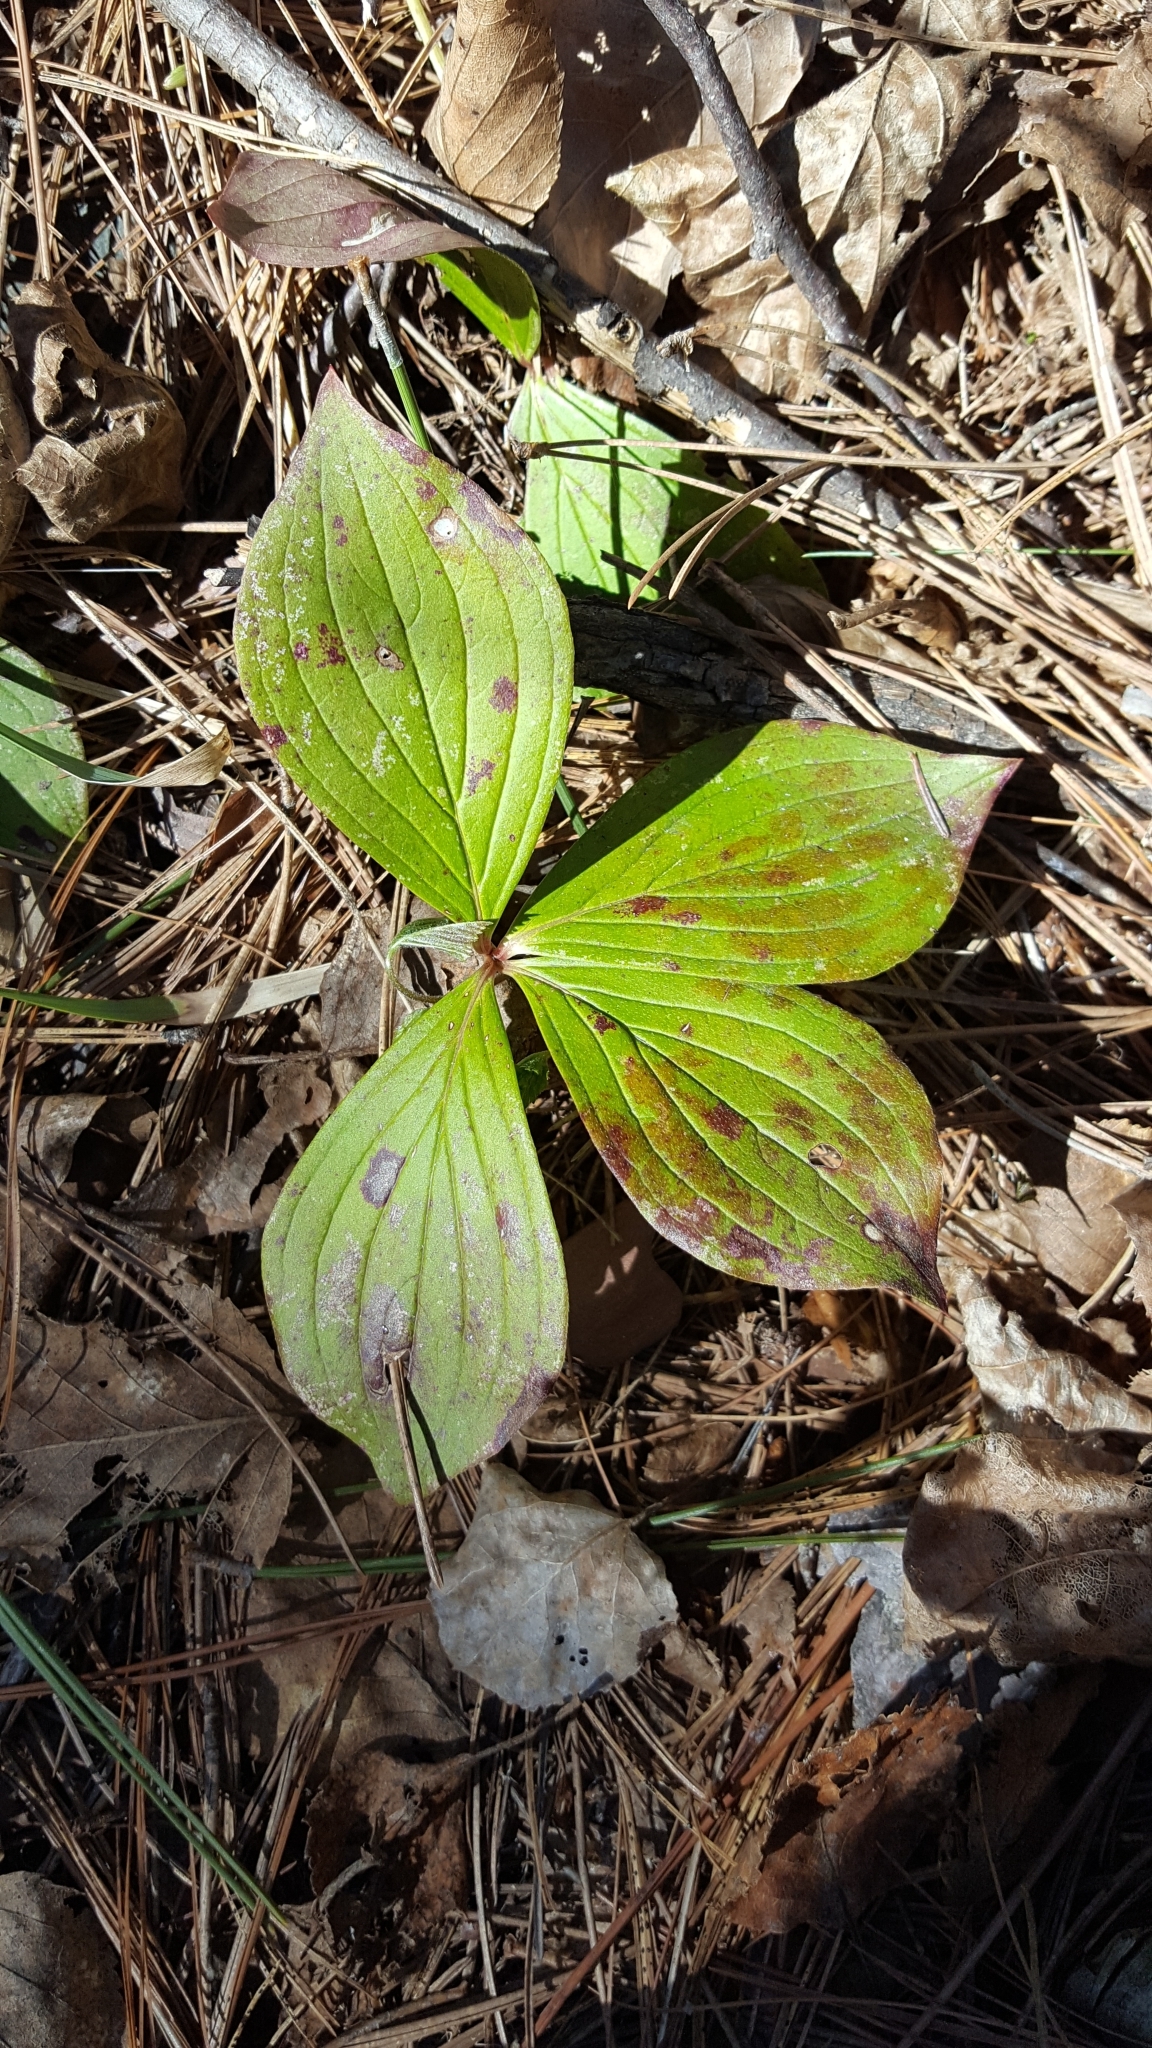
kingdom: Plantae
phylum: Tracheophyta
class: Magnoliopsida
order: Cornales
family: Cornaceae
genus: Cornus
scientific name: Cornus canadensis
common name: Creeping dogwood
